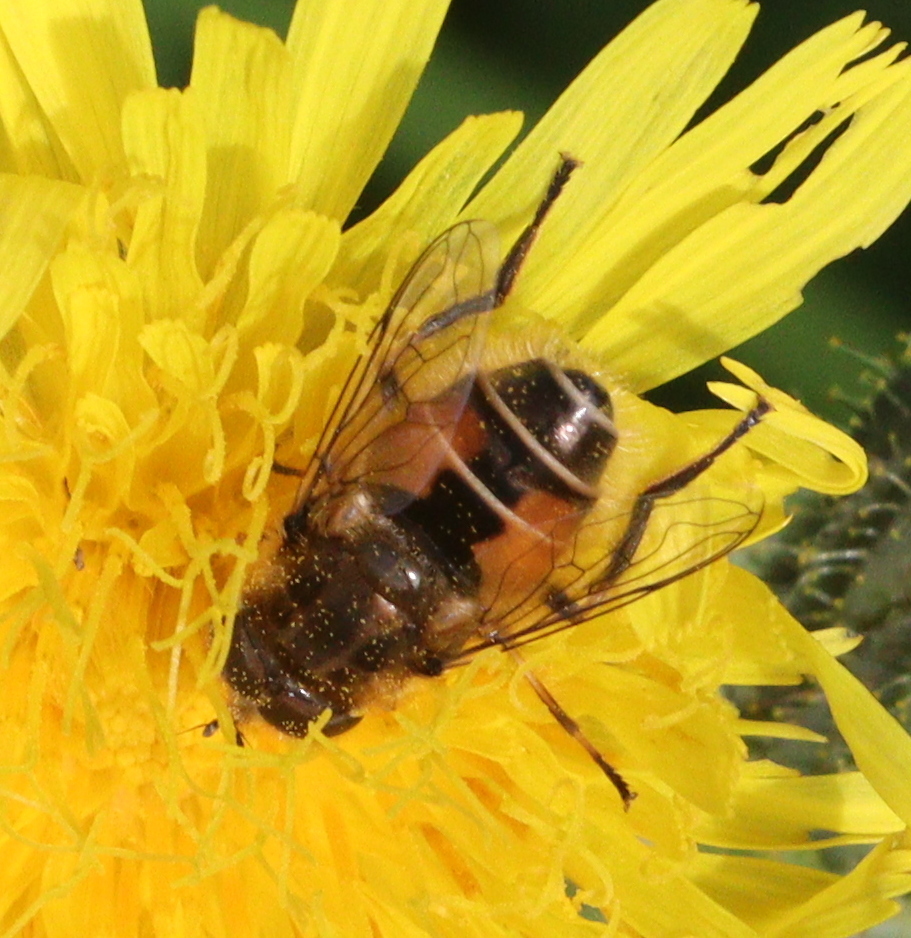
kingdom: Animalia
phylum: Arthropoda
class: Insecta
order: Diptera
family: Syrphidae
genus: Eristalis
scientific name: Eristalis arbustorum
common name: Hover fly
